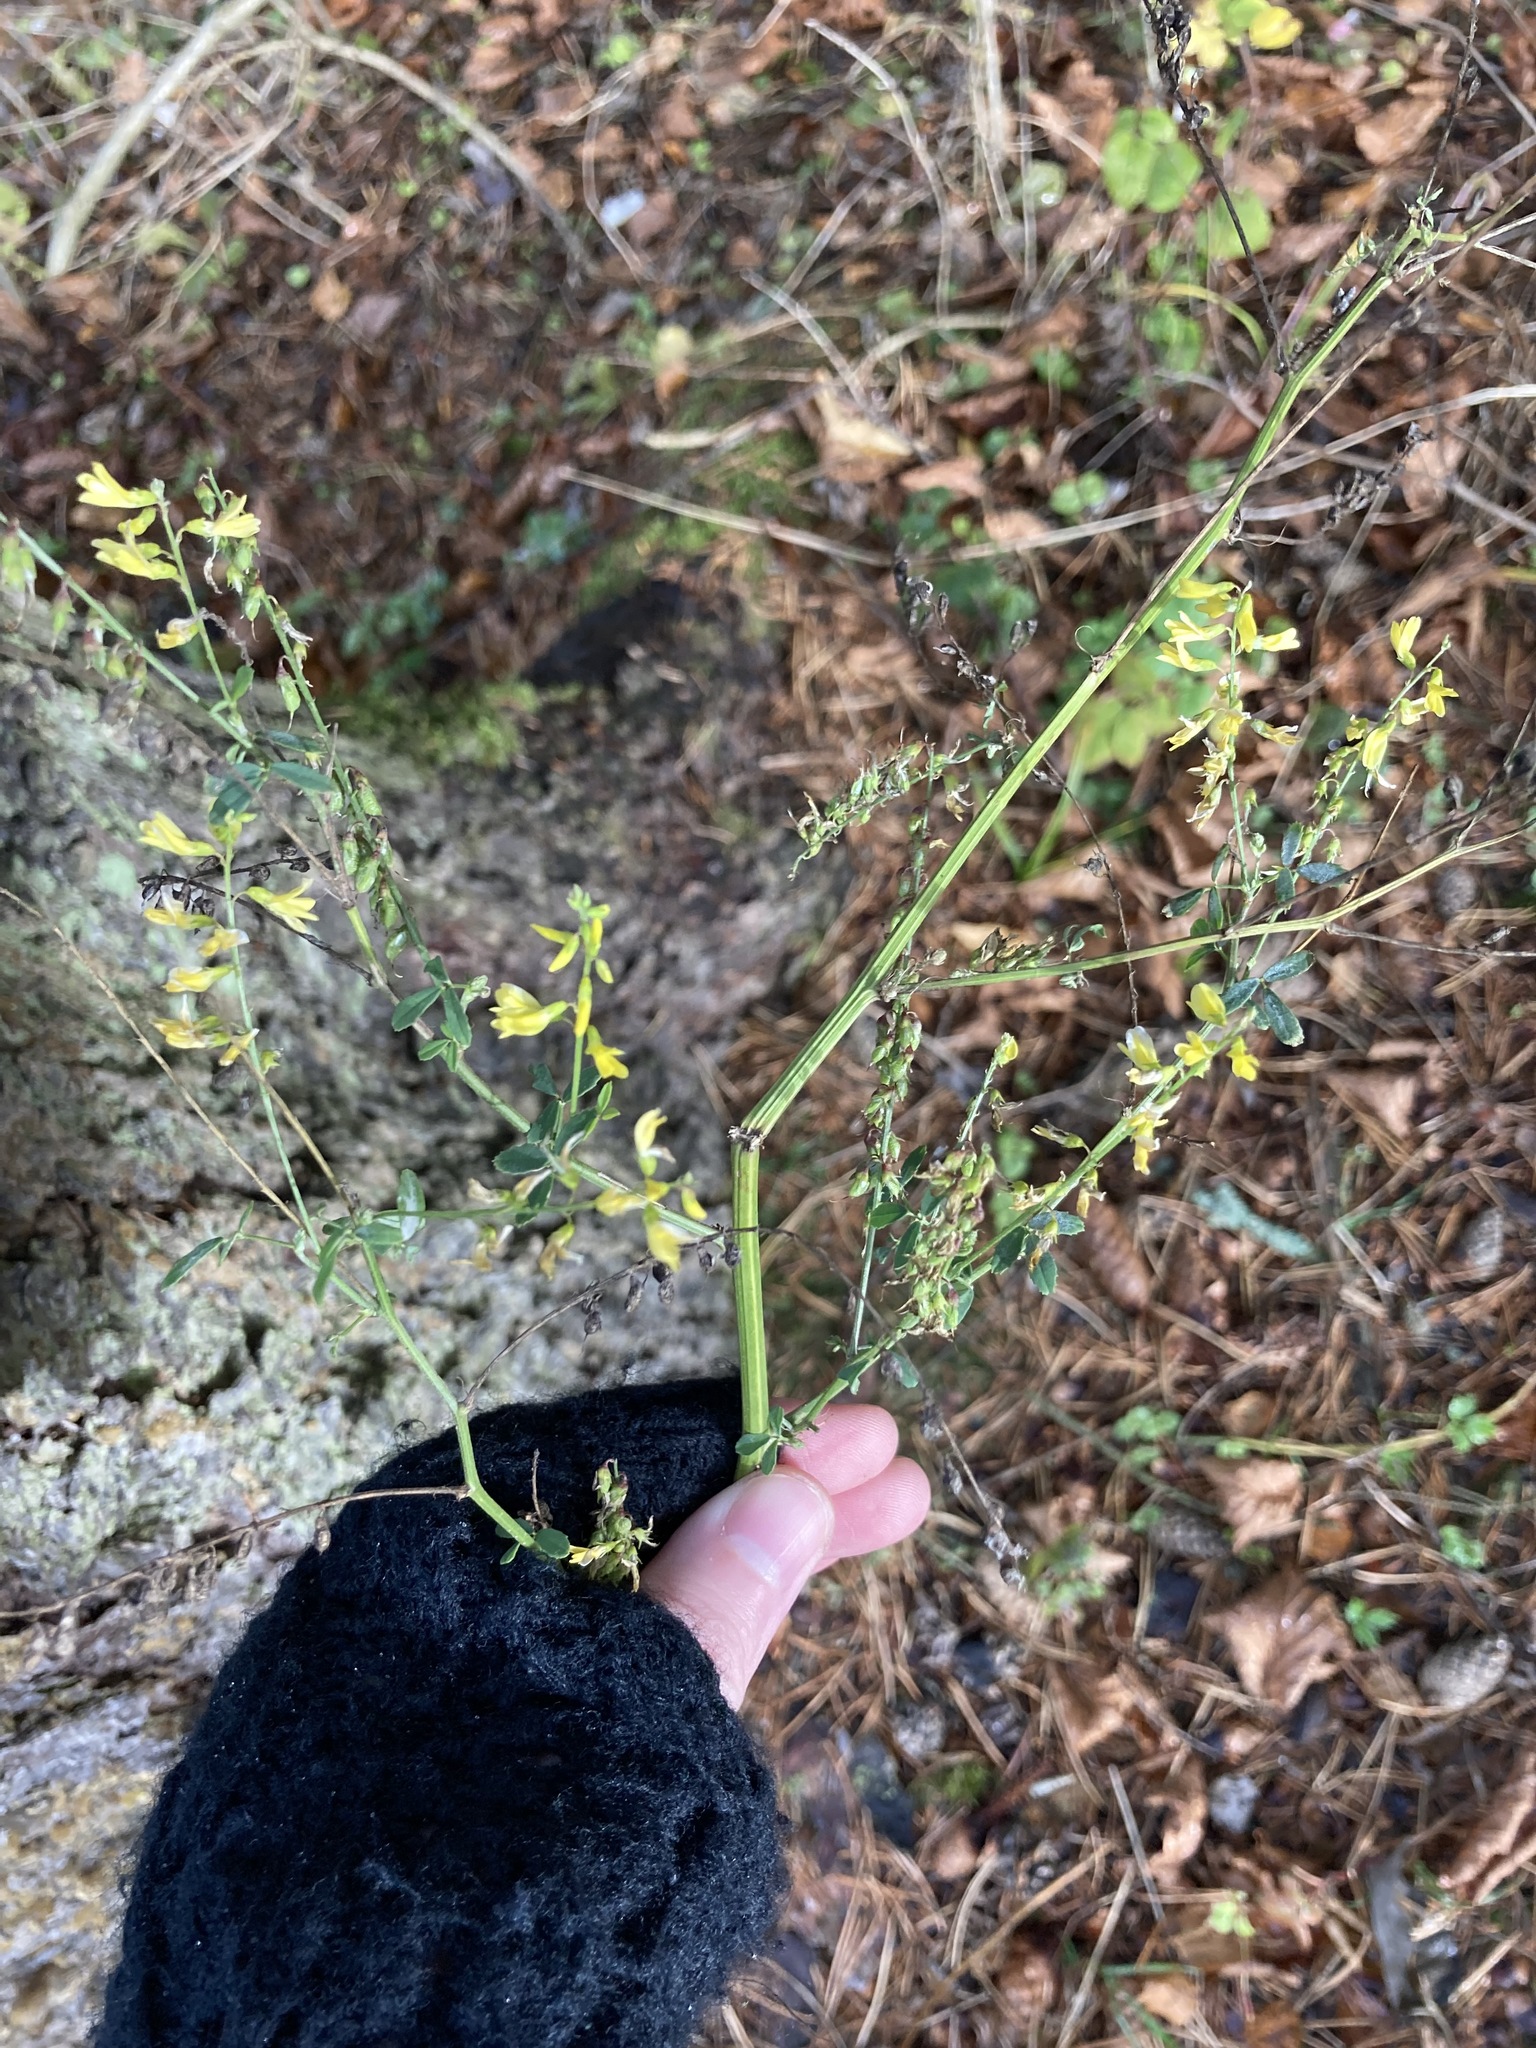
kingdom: Plantae
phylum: Tracheophyta
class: Magnoliopsida
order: Fabales
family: Fabaceae
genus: Melilotus
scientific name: Melilotus officinalis
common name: Sweetclover
